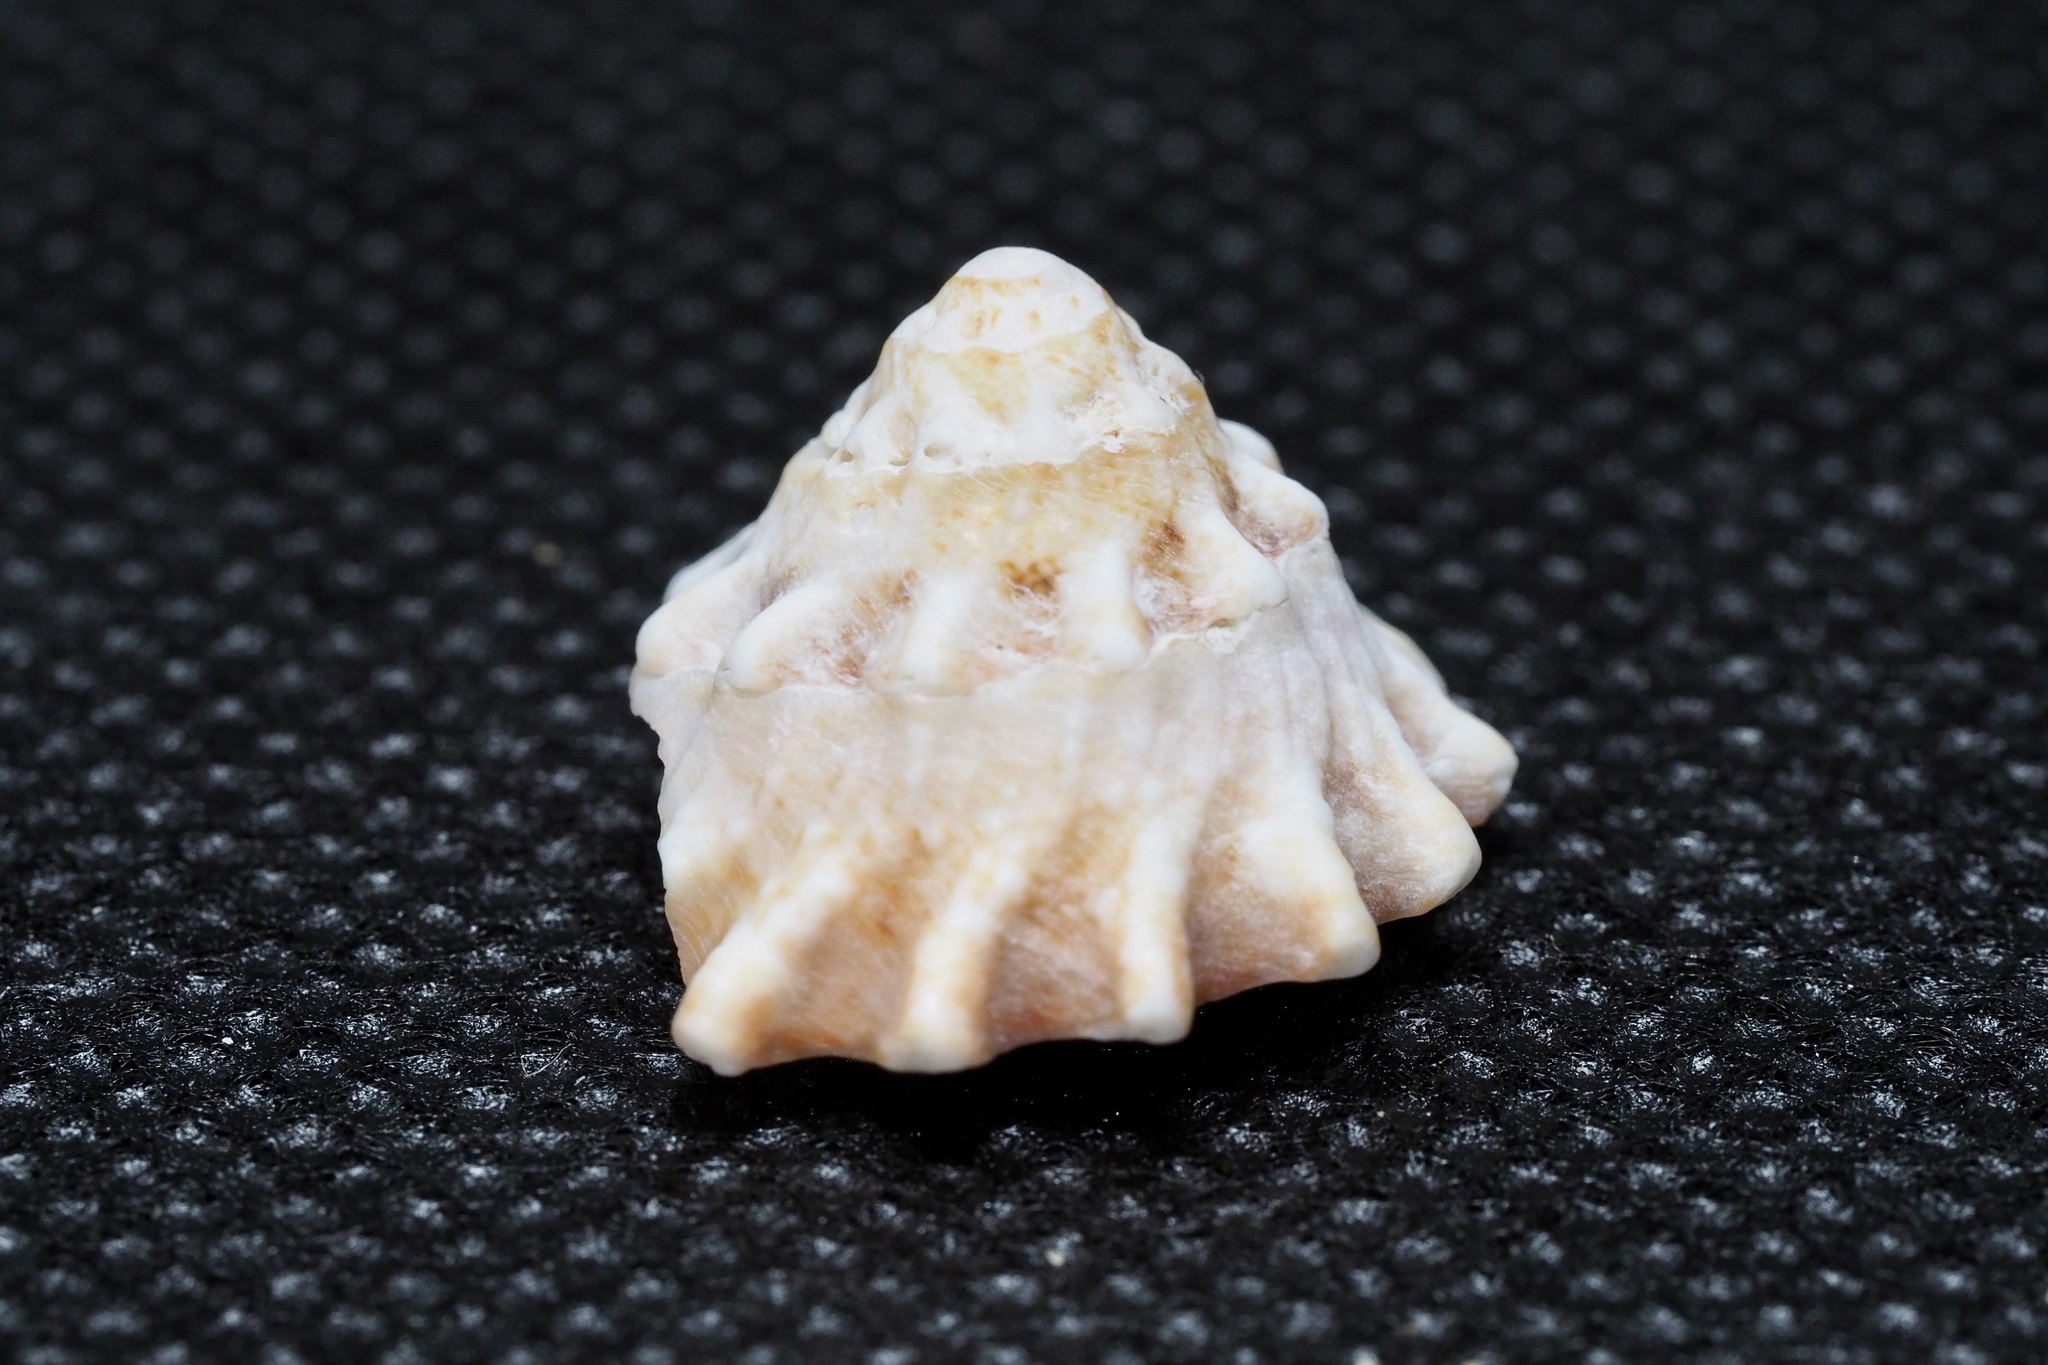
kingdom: Animalia
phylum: Mollusca
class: Gastropoda
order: Trochida
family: Turbinidae
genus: Astralium
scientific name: Astralium haematragum
